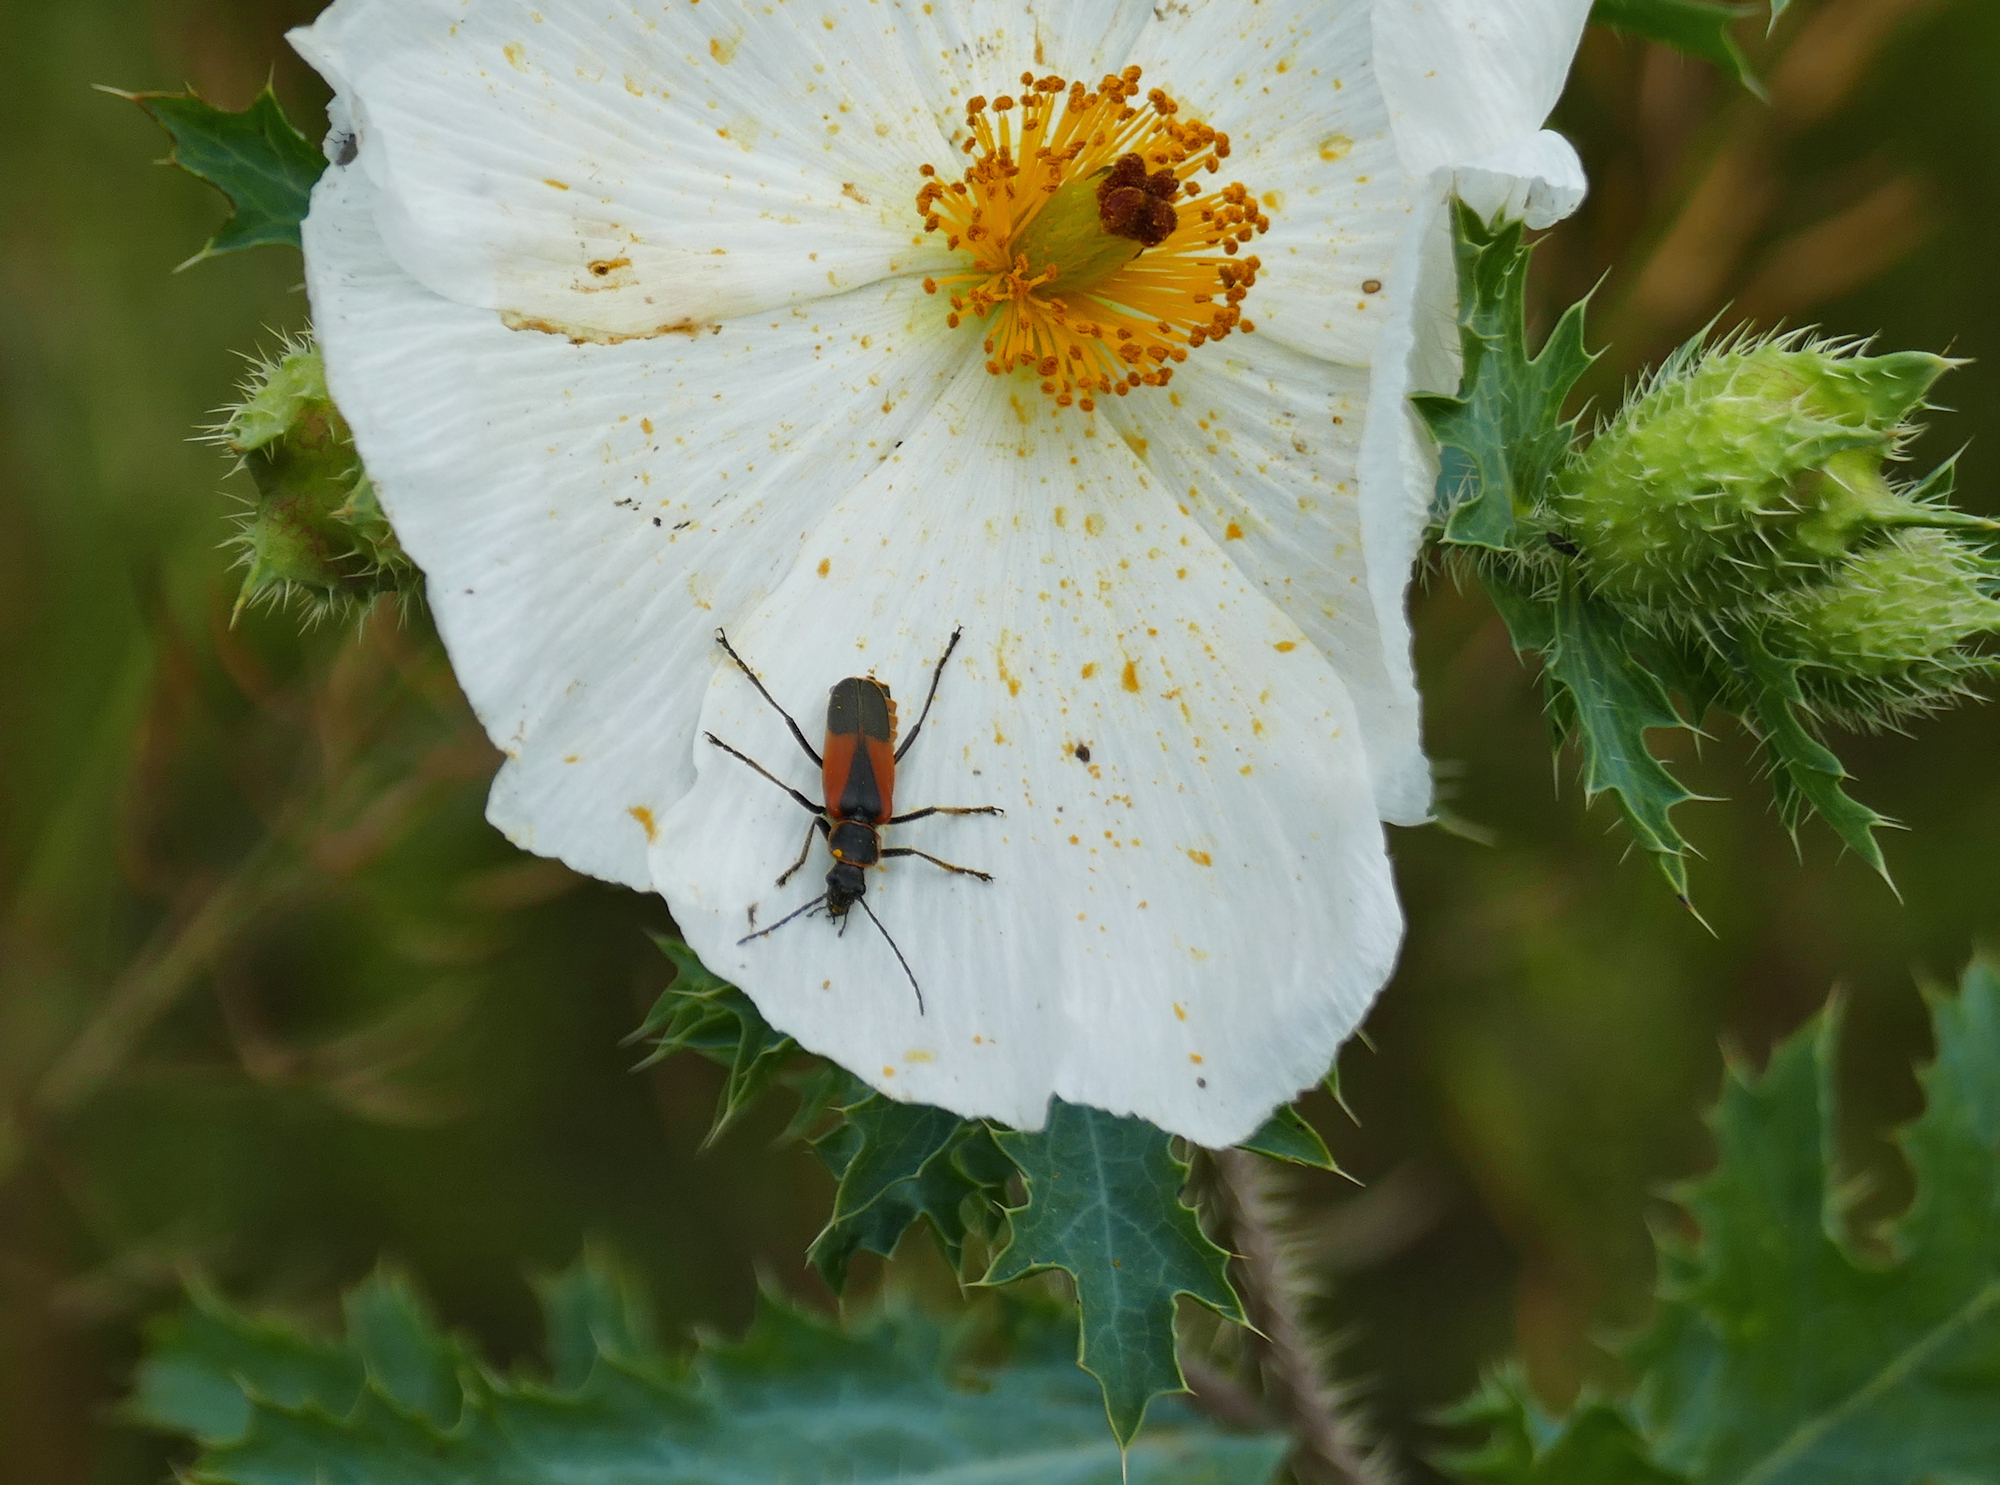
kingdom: Animalia
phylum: Arthropoda
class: Insecta
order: Coleoptera
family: Cantharidae
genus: Chauliognathus
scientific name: Chauliognathus limbicollis
